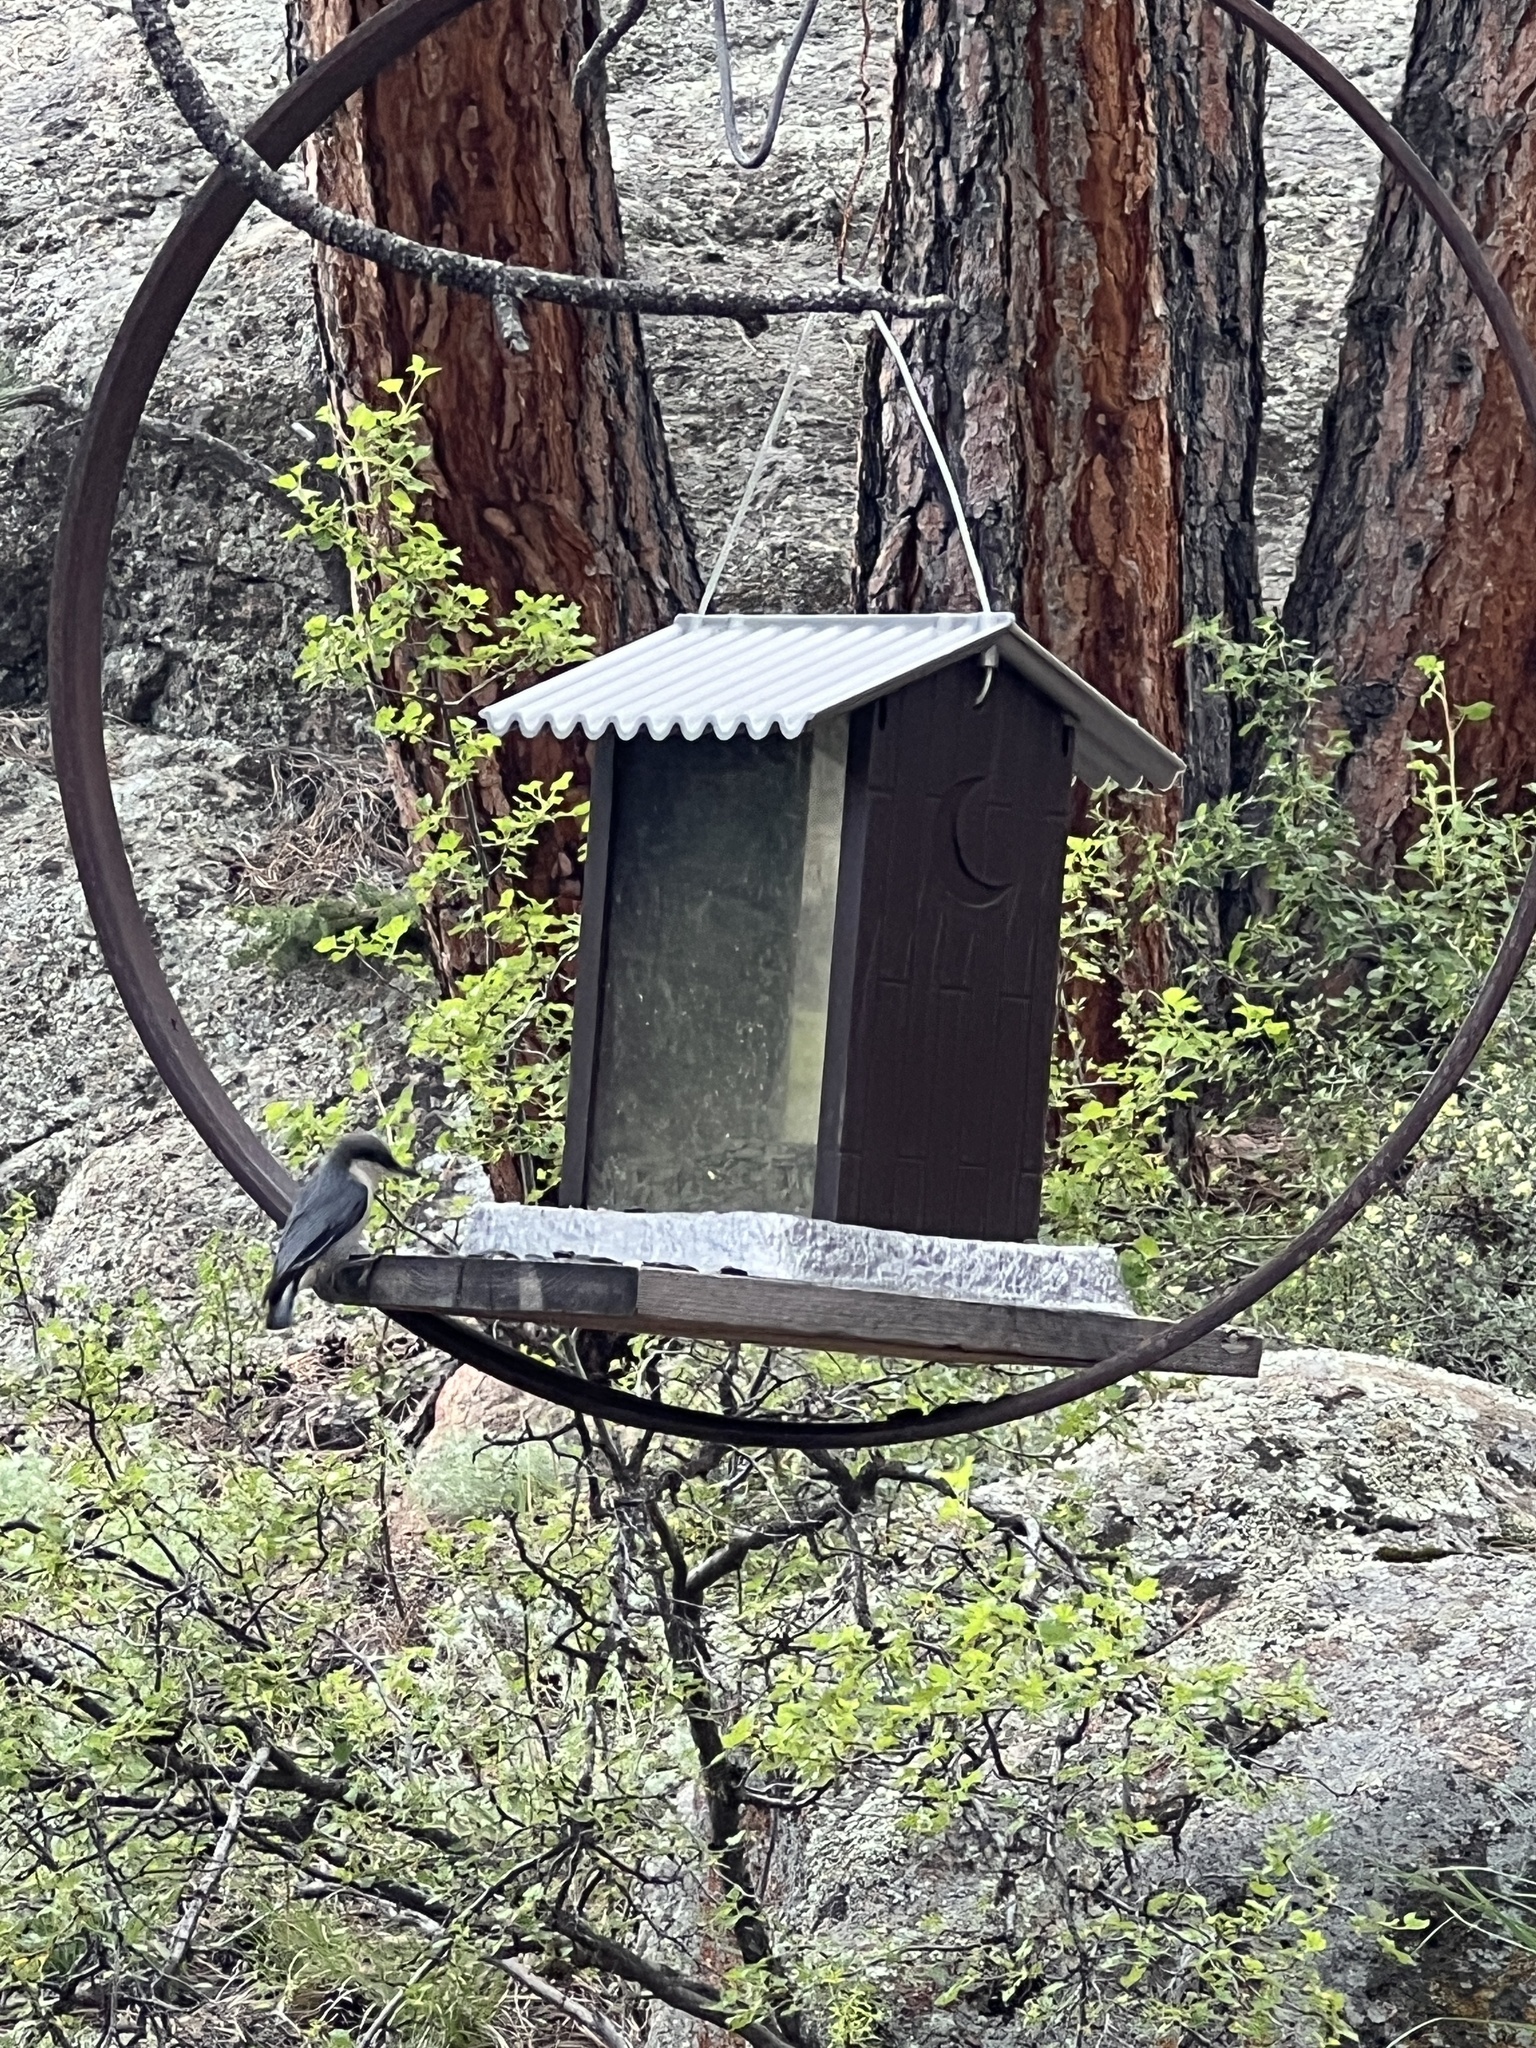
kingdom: Animalia
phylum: Chordata
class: Aves
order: Passeriformes
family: Sittidae
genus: Sitta
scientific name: Sitta pygmaea
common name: Pygmy nuthatch
